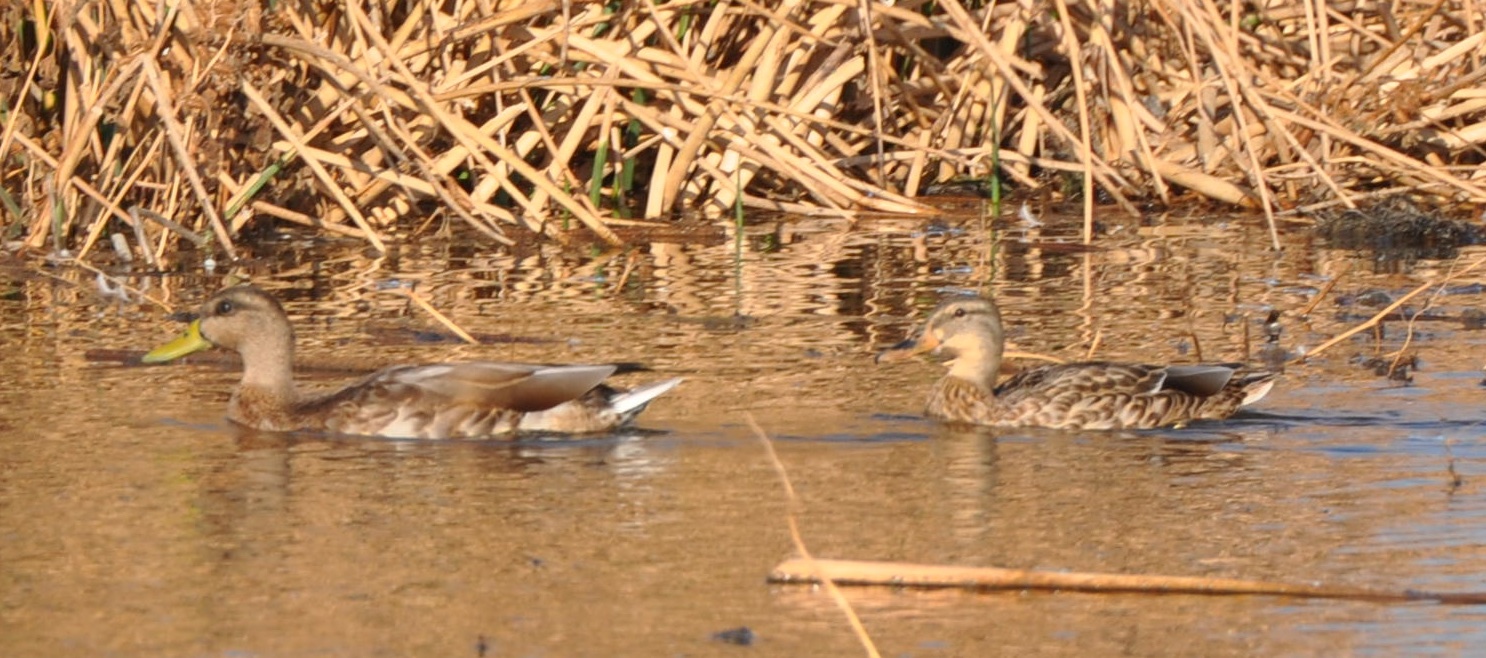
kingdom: Animalia
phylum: Chordata
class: Aves
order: Anseriformes
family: Anatidae
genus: Anas
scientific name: Anas platyrhynchos
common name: Mallard
